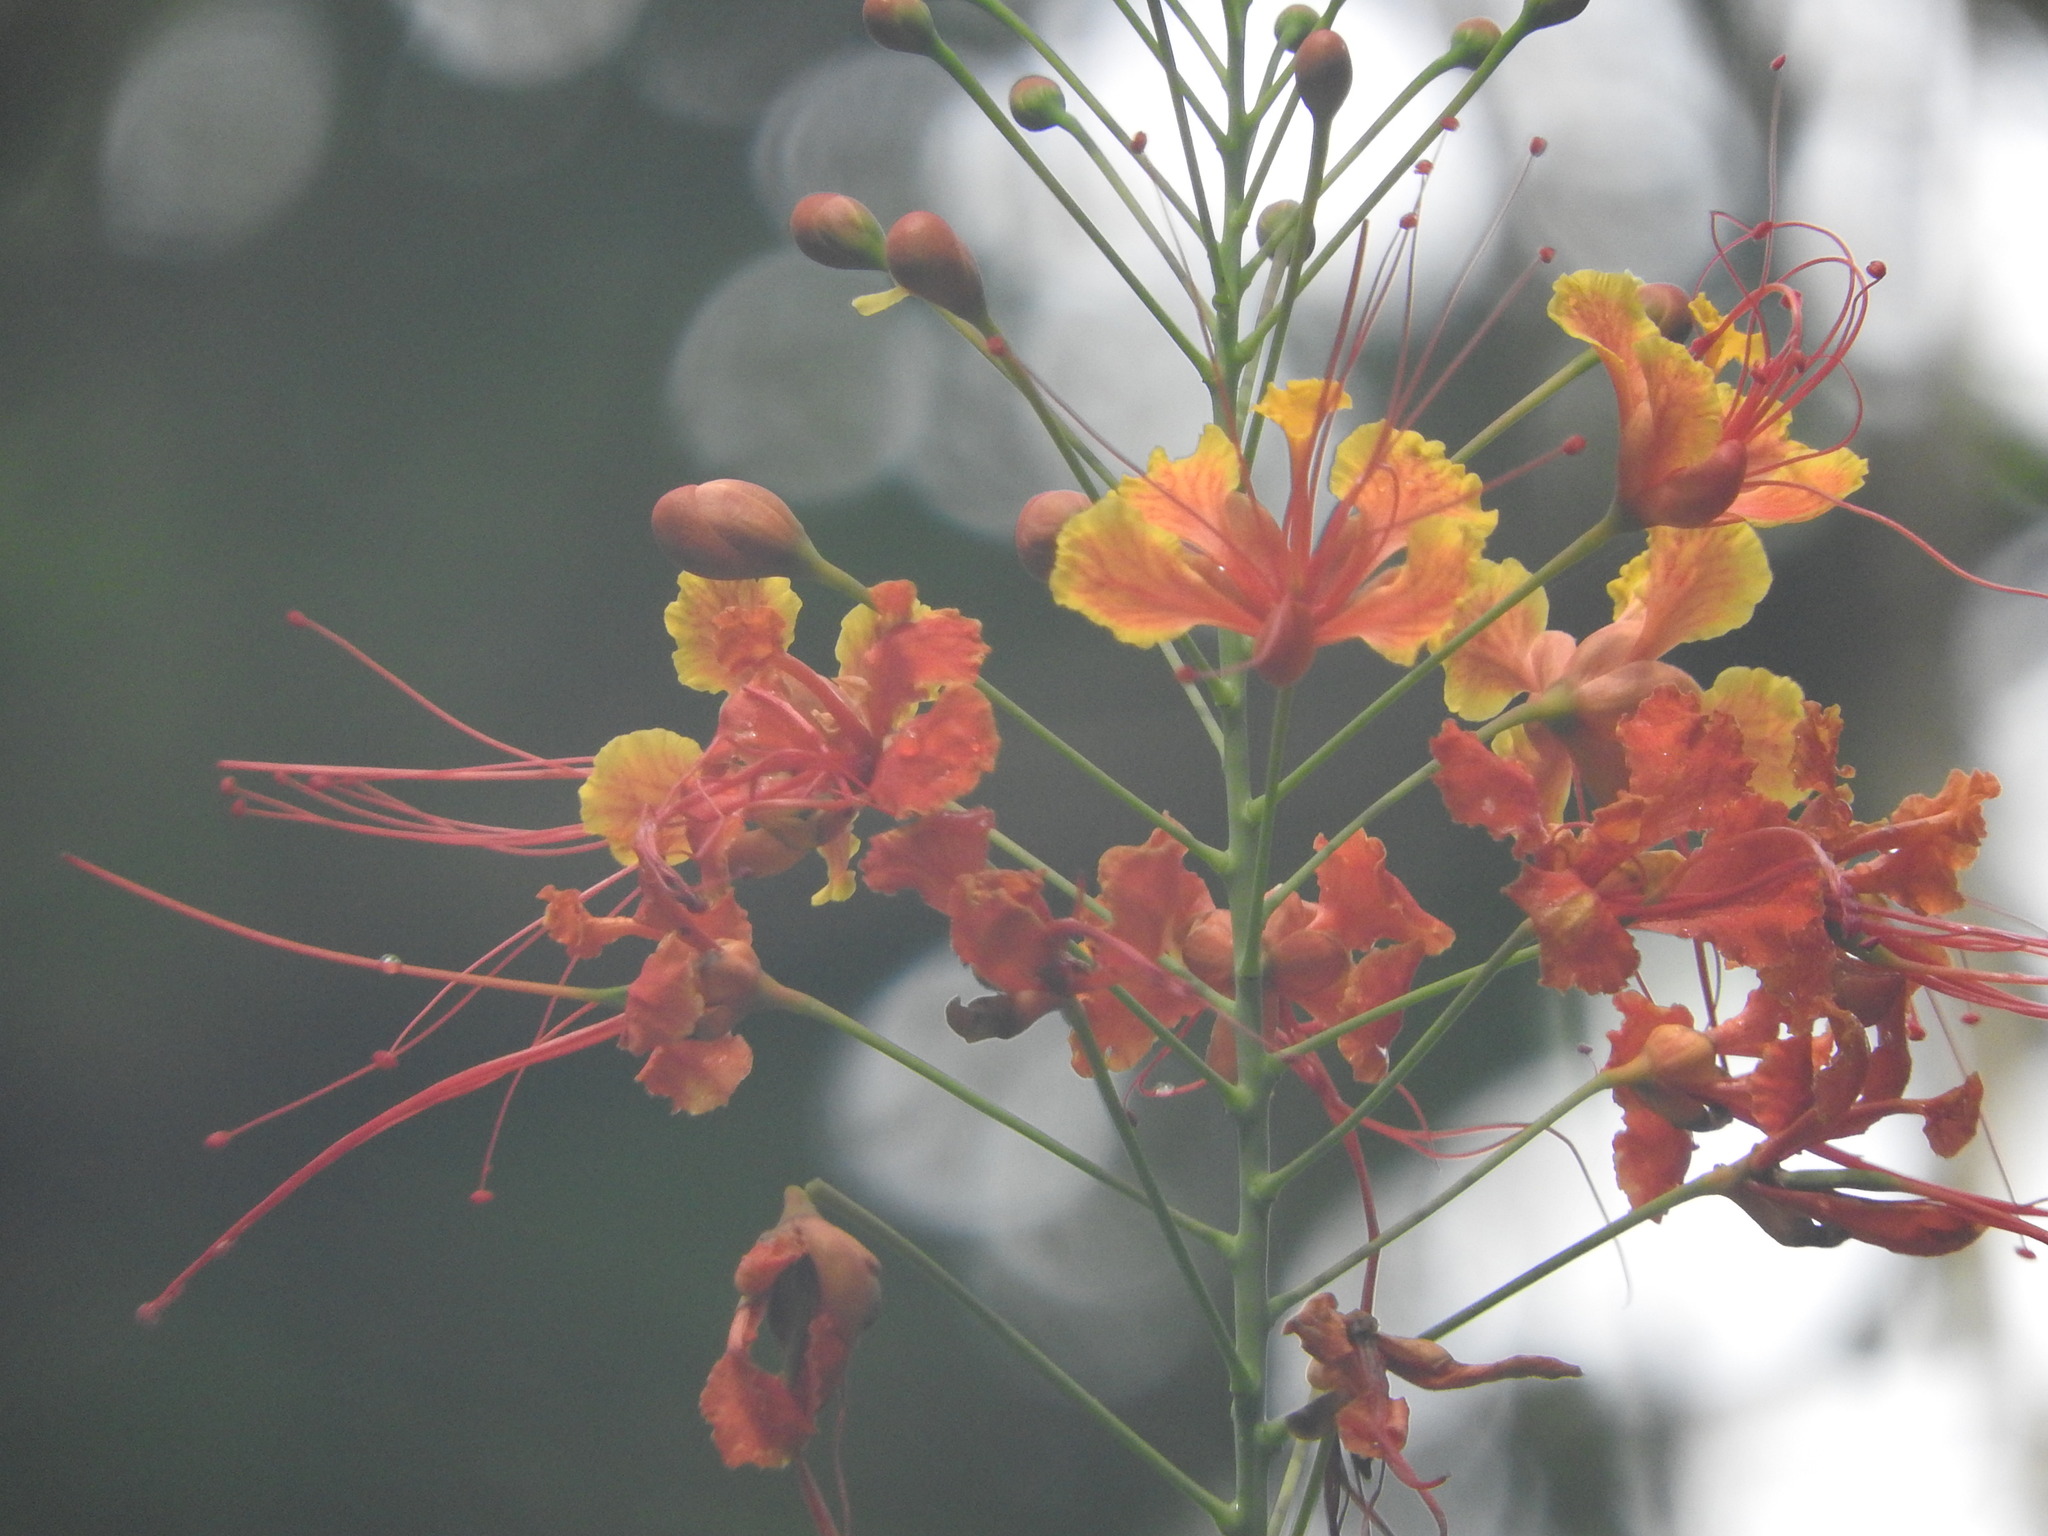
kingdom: Plantae
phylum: Tracheophyta
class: Magnoliopsida
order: Fabales
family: Fabaceae
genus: Caesalpinia
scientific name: Caesalpinia pulcherrima
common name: Pride-of-barbados
